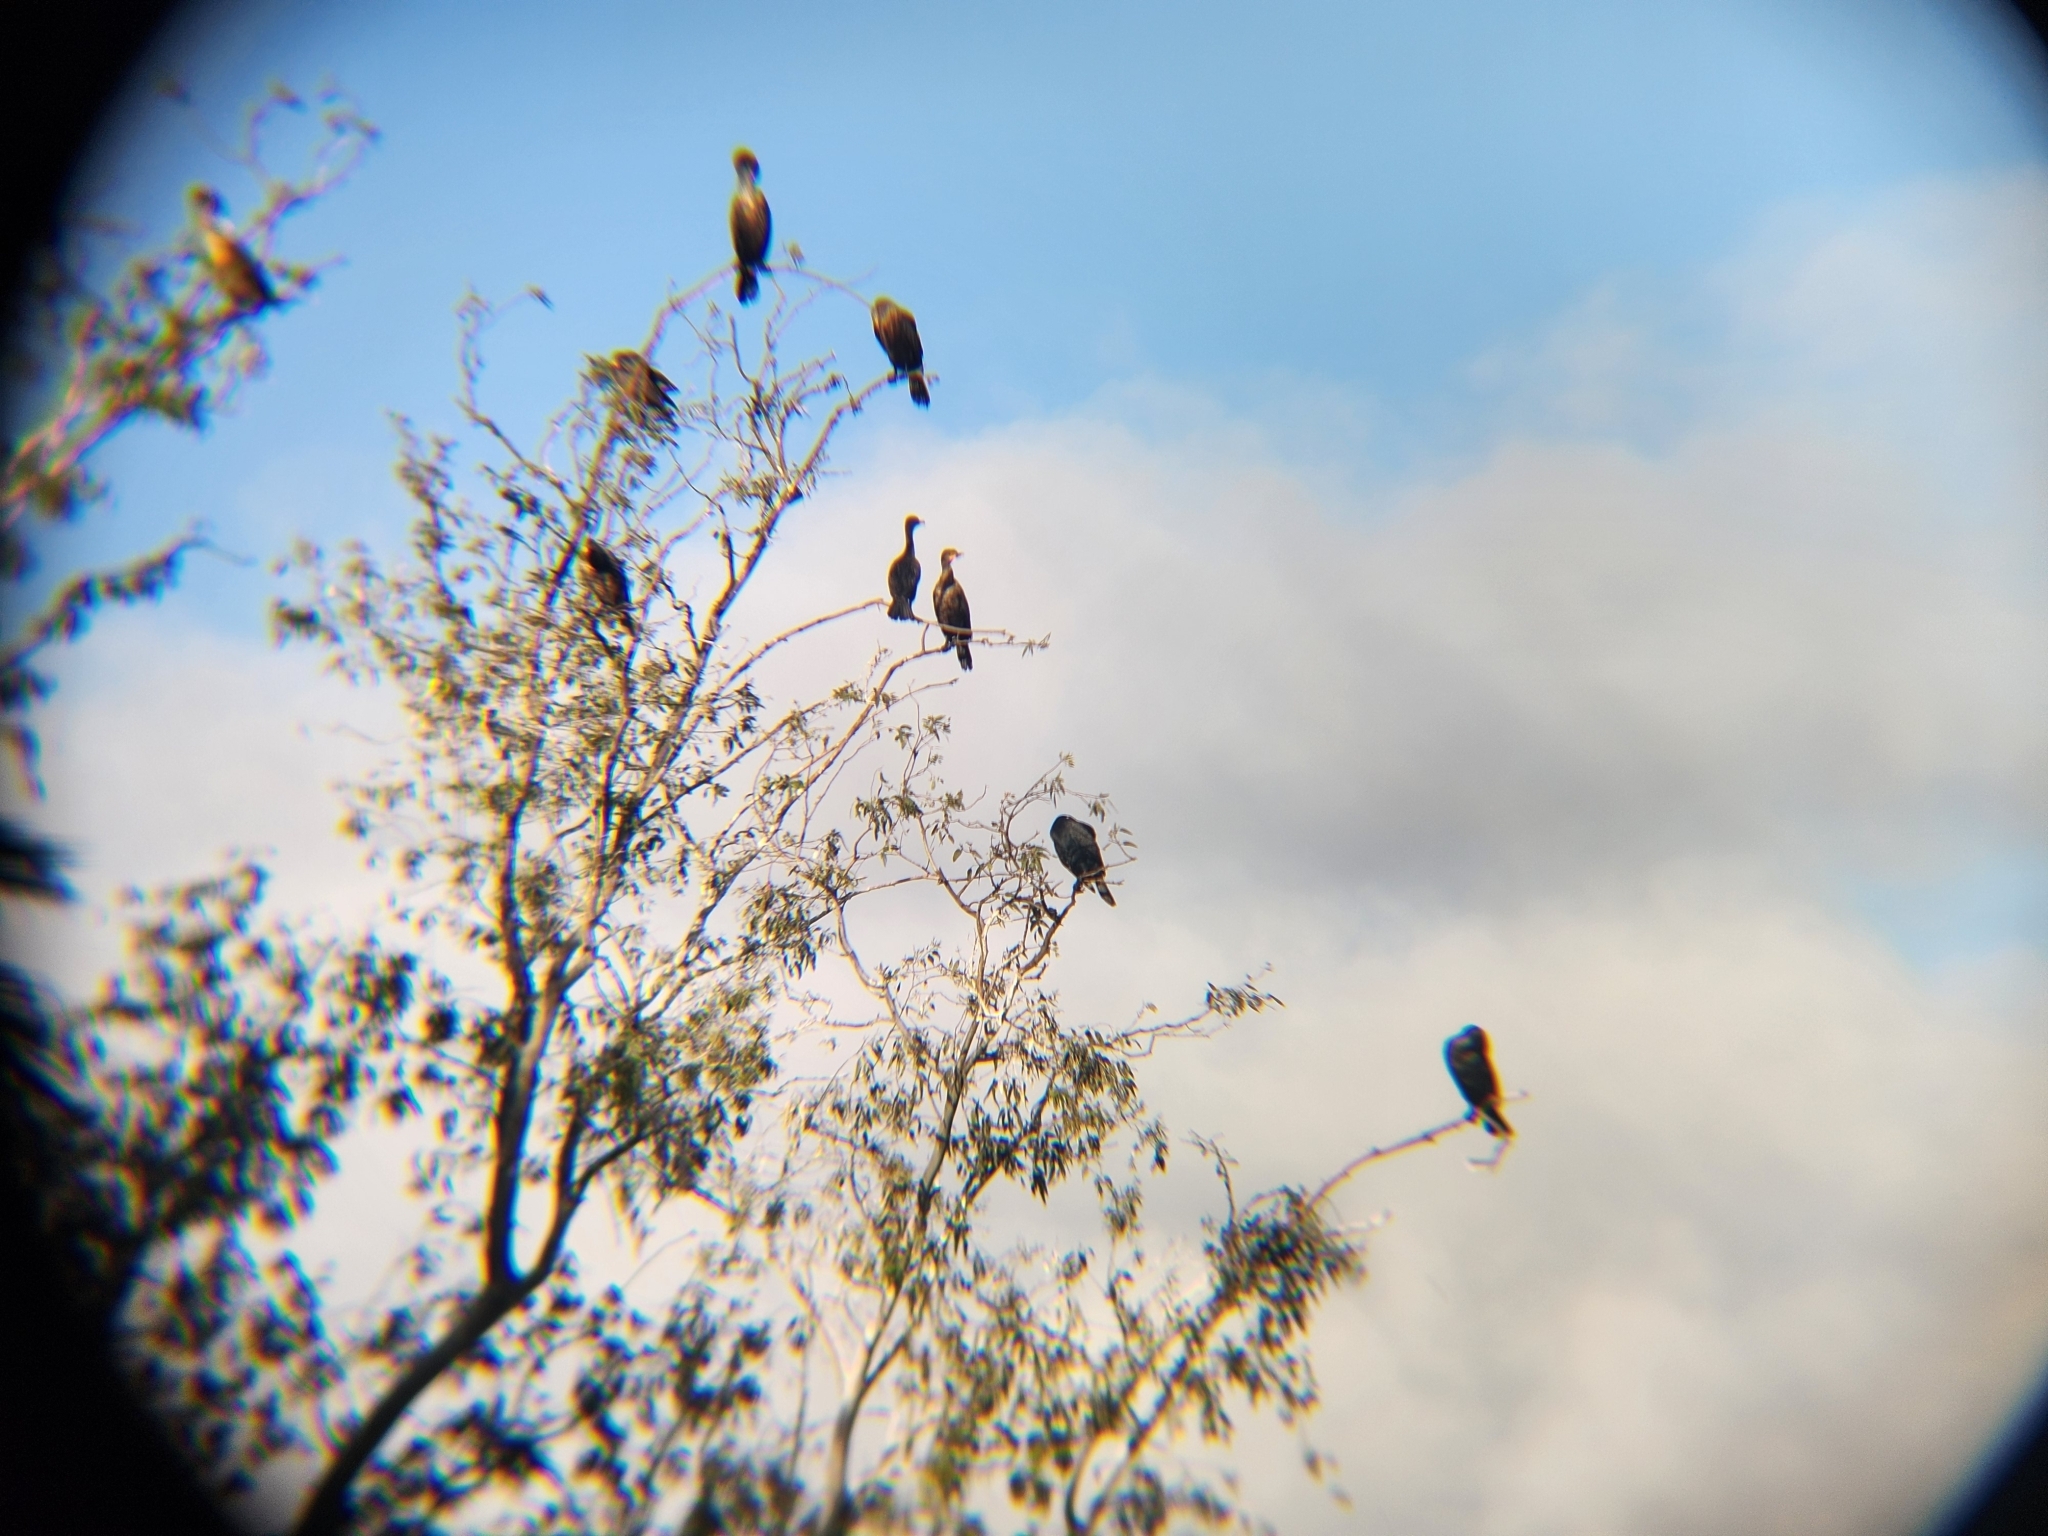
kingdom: Animalia
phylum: Chordata
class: Aves
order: Suliformes
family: Phalacrocoracidae
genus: Phalacrocorax
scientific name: Phalacrocorax auritus
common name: Double-crested cormorant
